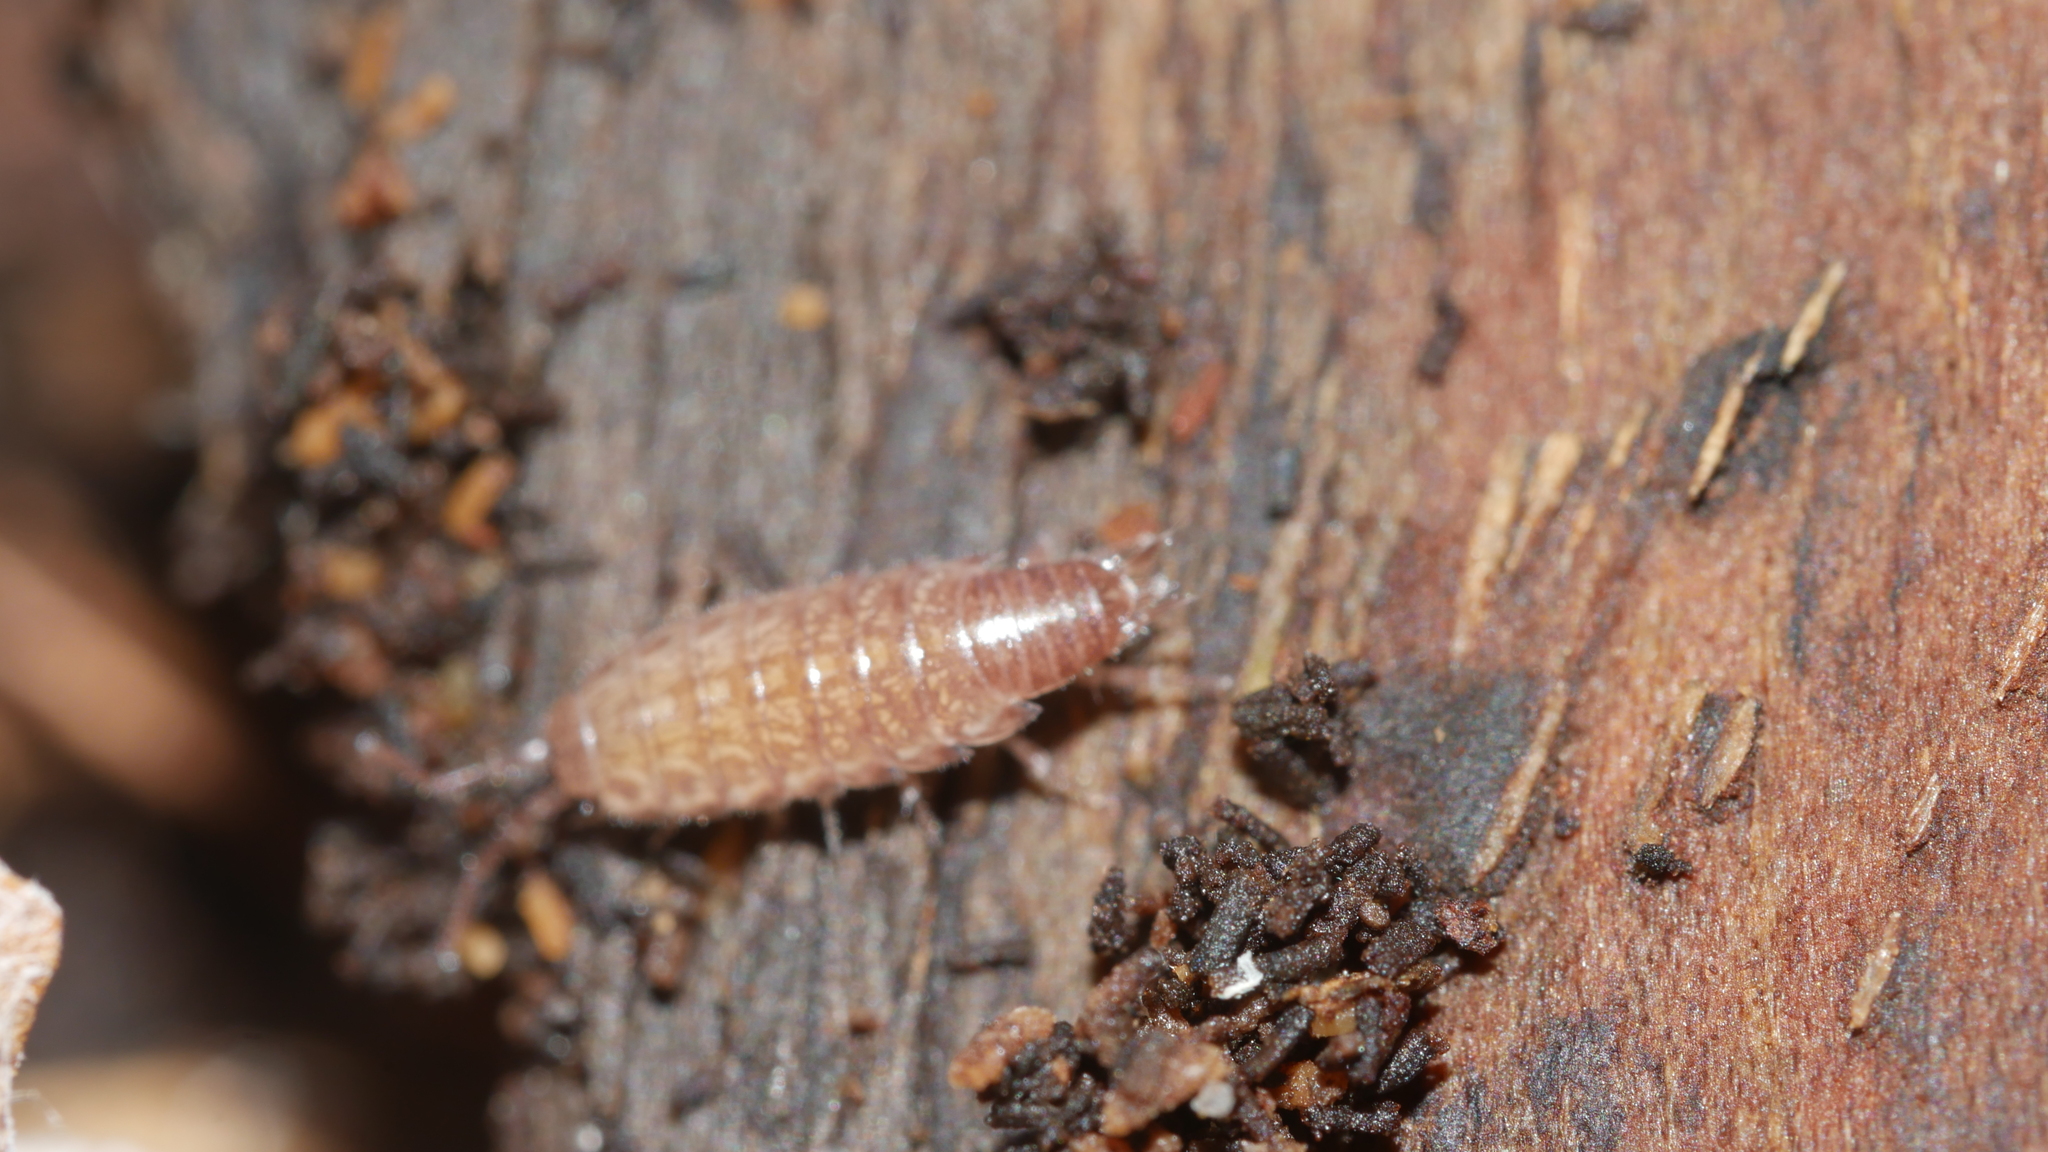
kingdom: Animalia
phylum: Arthropoda
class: Malacostraca
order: Isopoda
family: Philosciidae
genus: Chaetophiloscia
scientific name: Chaetophiloscia sicula
